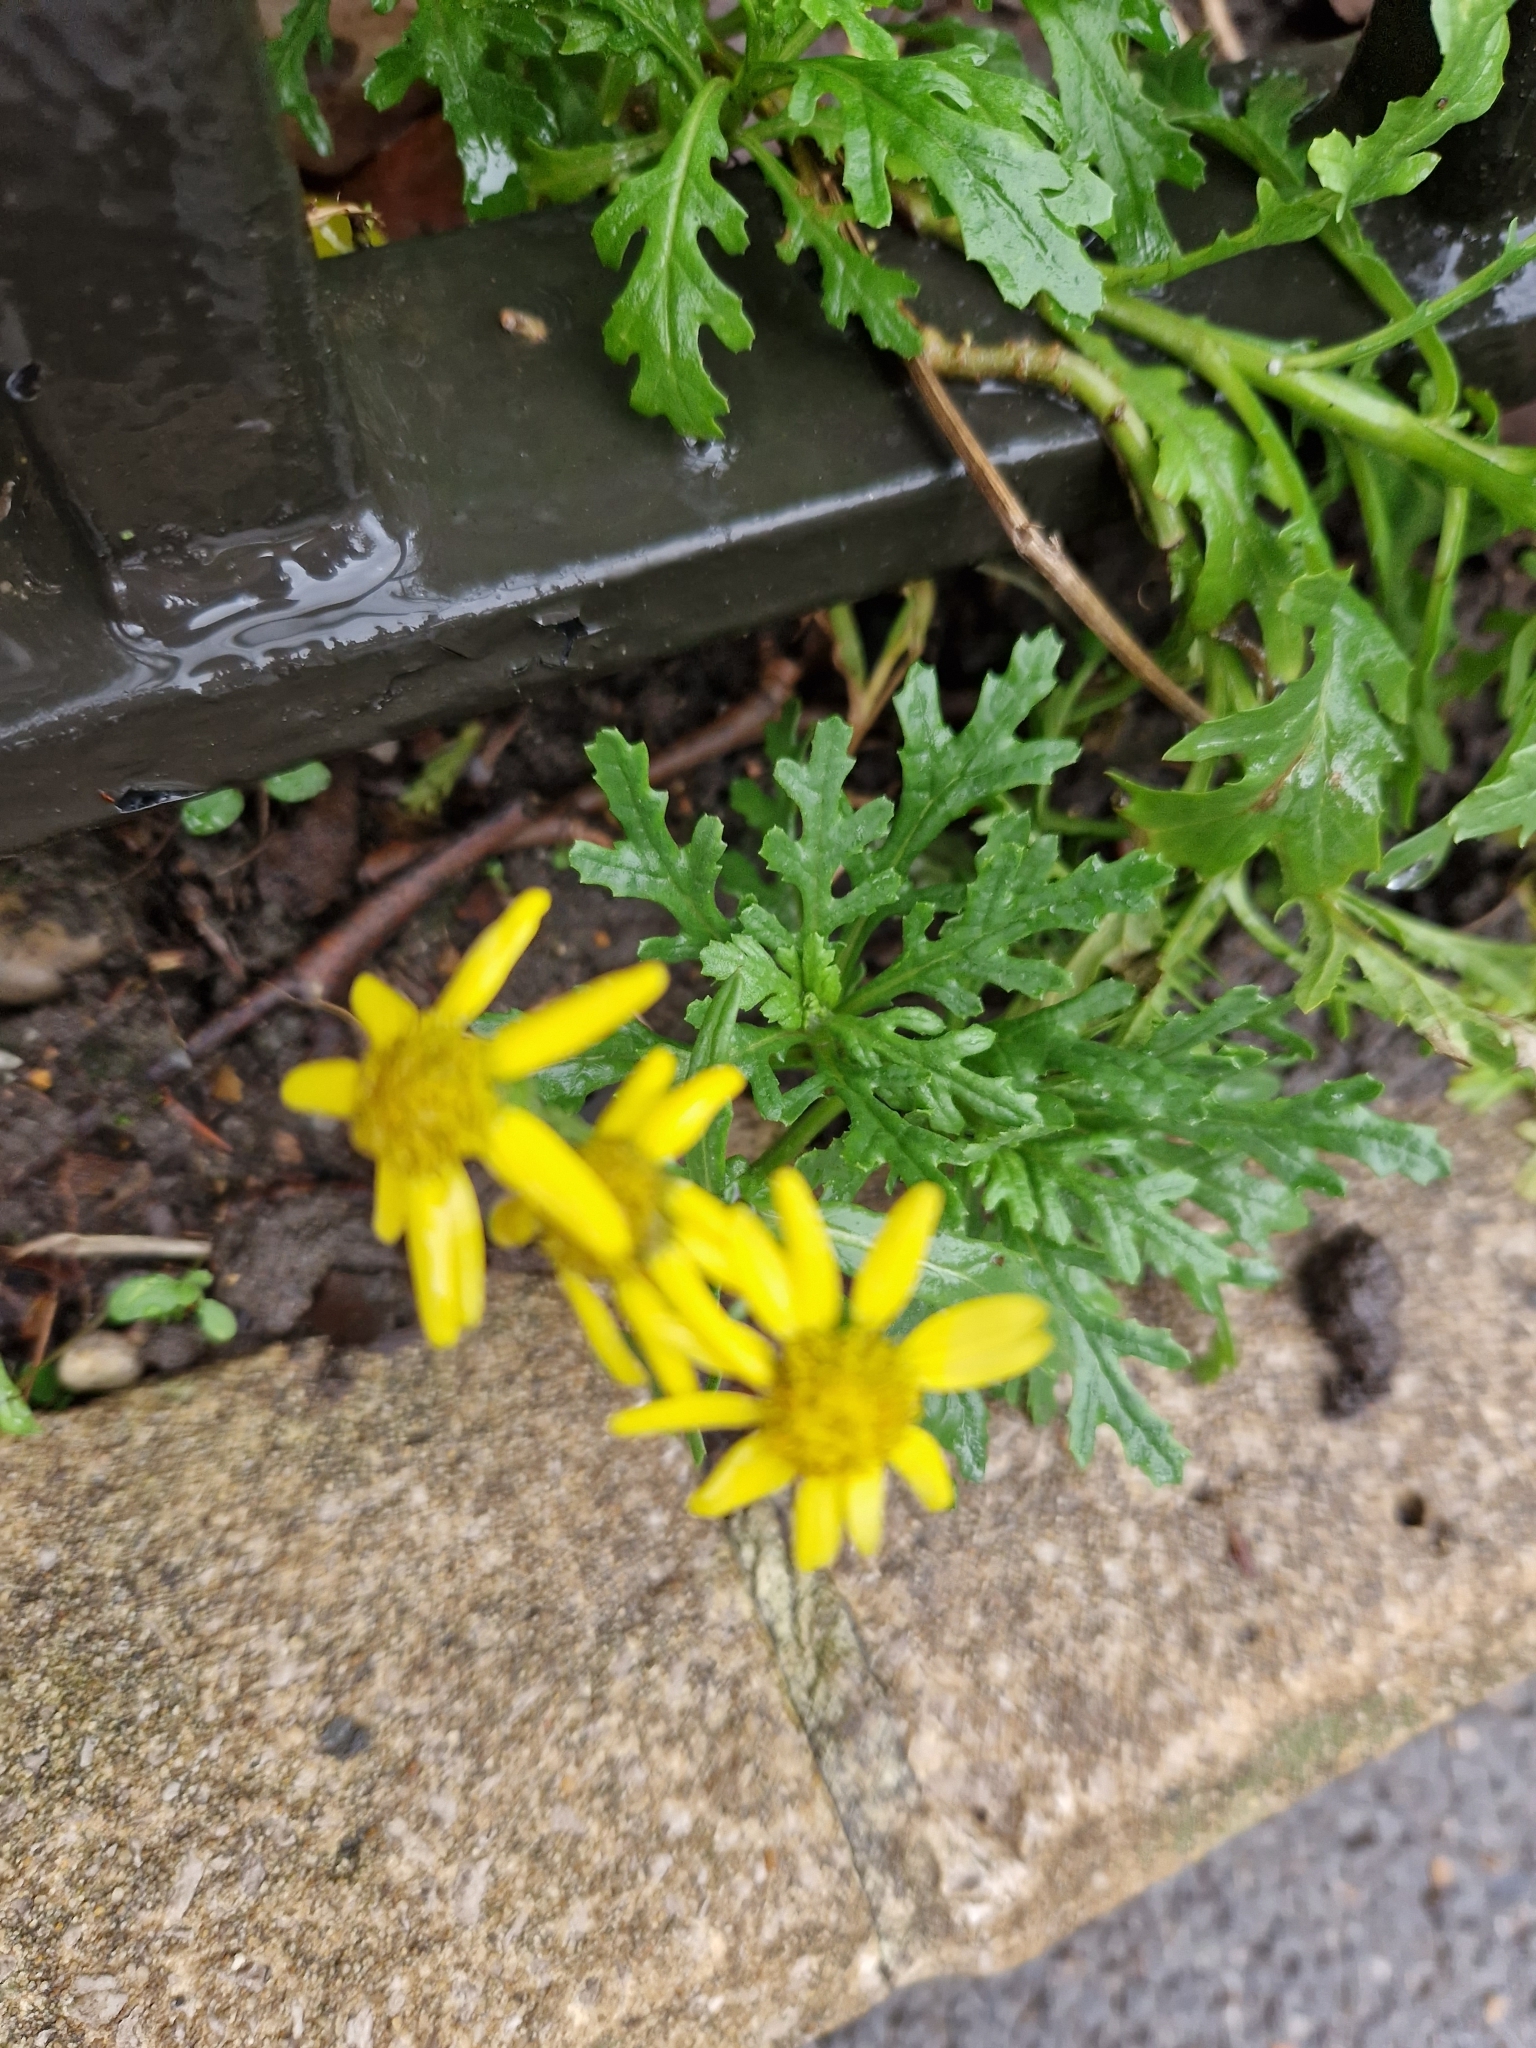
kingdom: Plantae
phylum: Tracheophyta
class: Magnoliopsida
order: Asterales
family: Asteraceae
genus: Senecio
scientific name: Senecio squalidus
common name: Oxford ragwort
